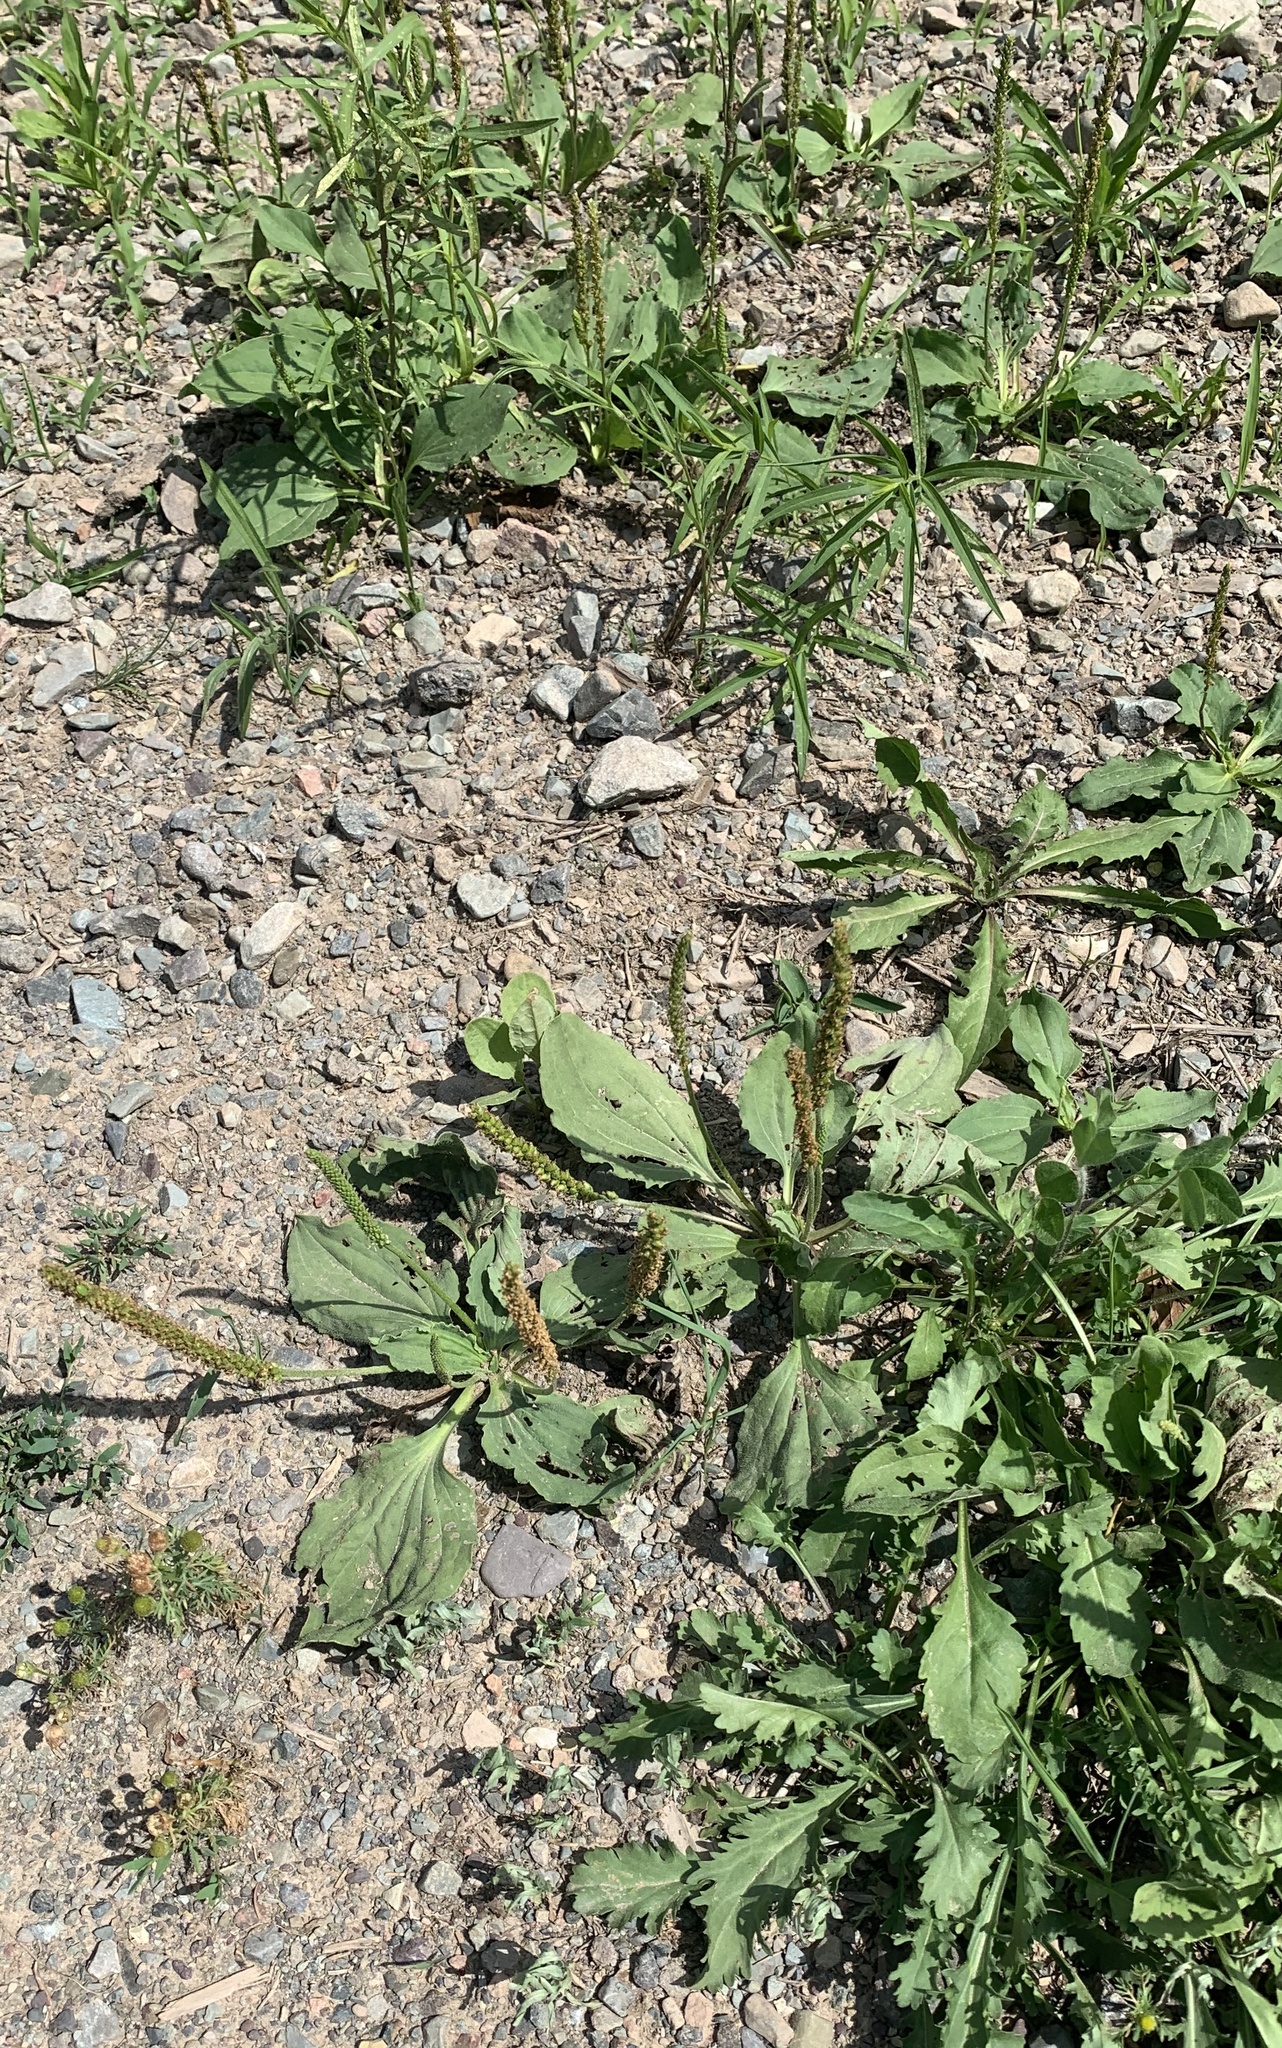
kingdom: Plantae
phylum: Tracheophyta
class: Magnoliopsida
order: Lamiales
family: Plantaginaceae
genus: Plantago
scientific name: Plantago major
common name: Common plantain
